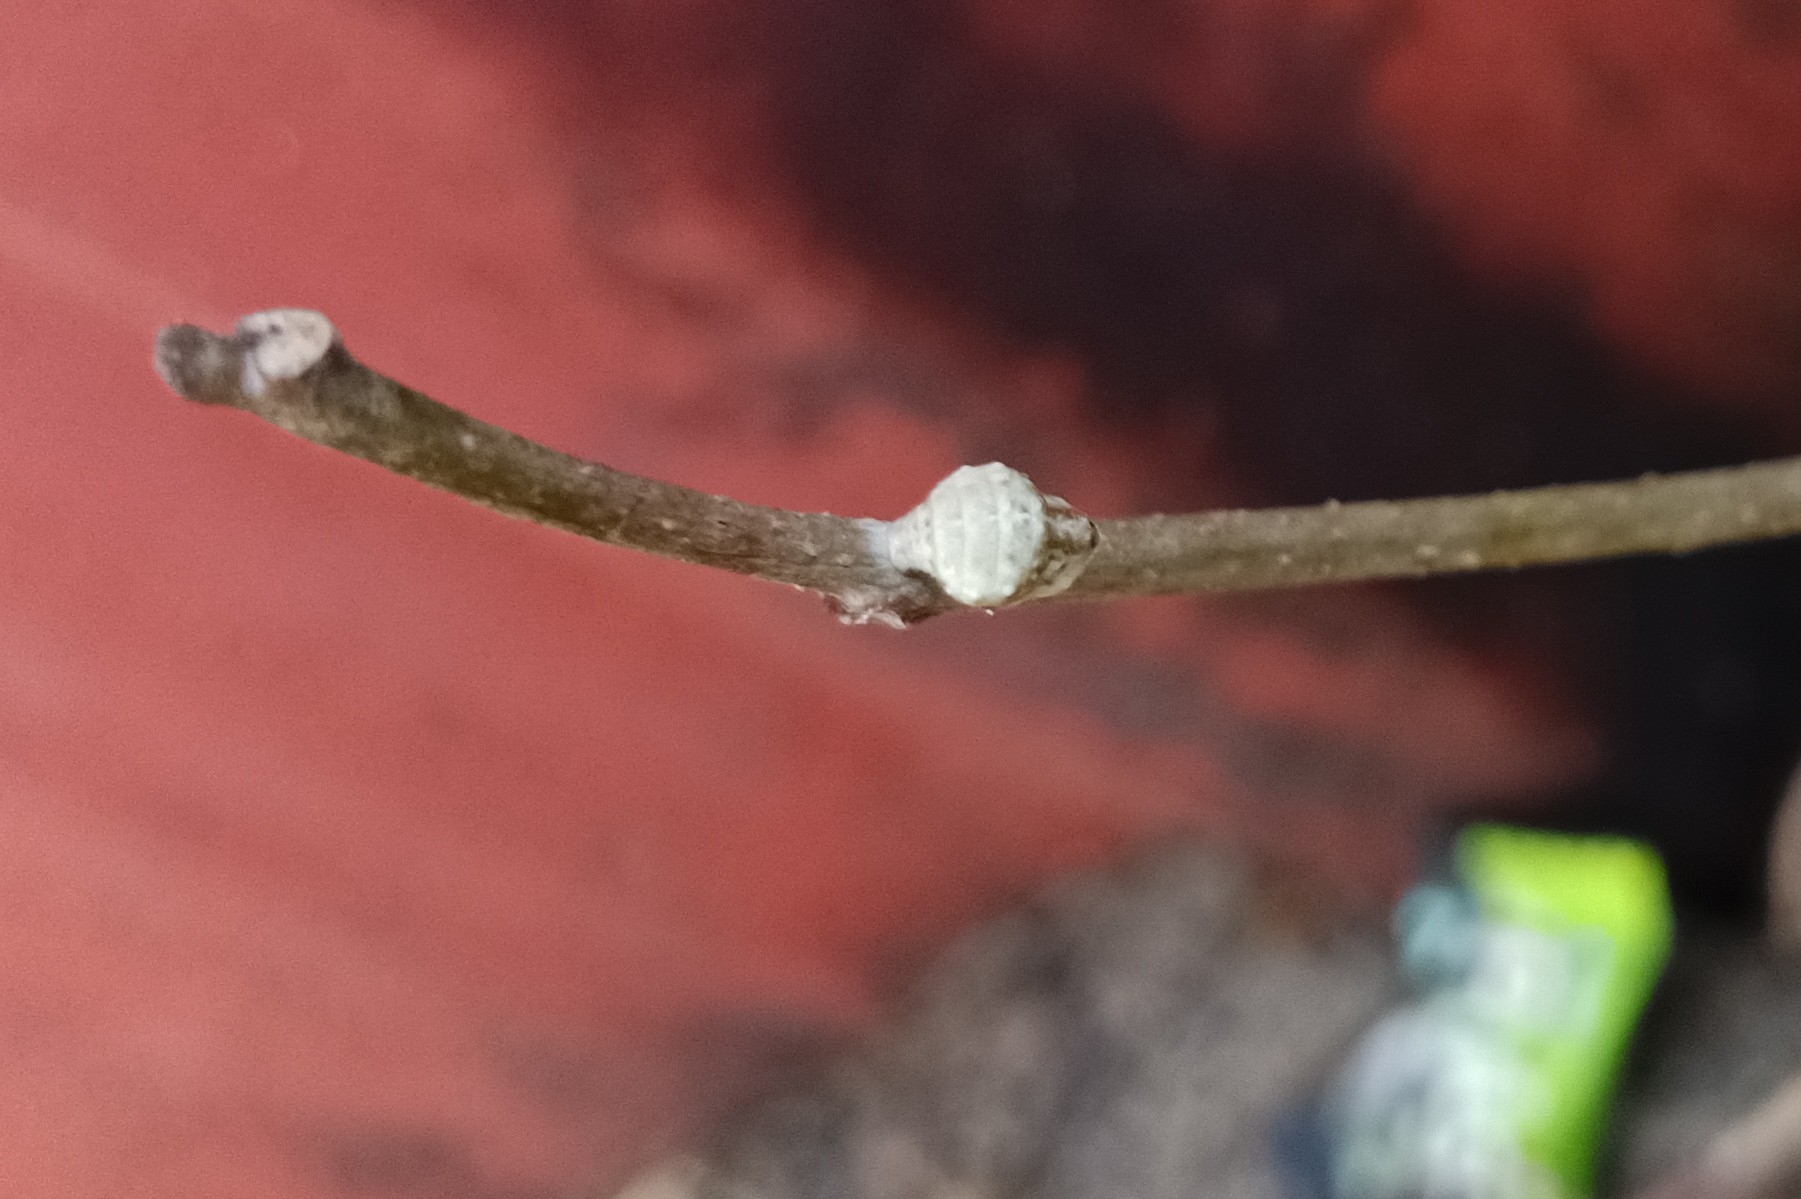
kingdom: Animalia
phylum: Arthropoda
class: Insecta
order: Lepidoptera
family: Lycaenidae
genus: Spalgis
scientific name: Spalgis epius
